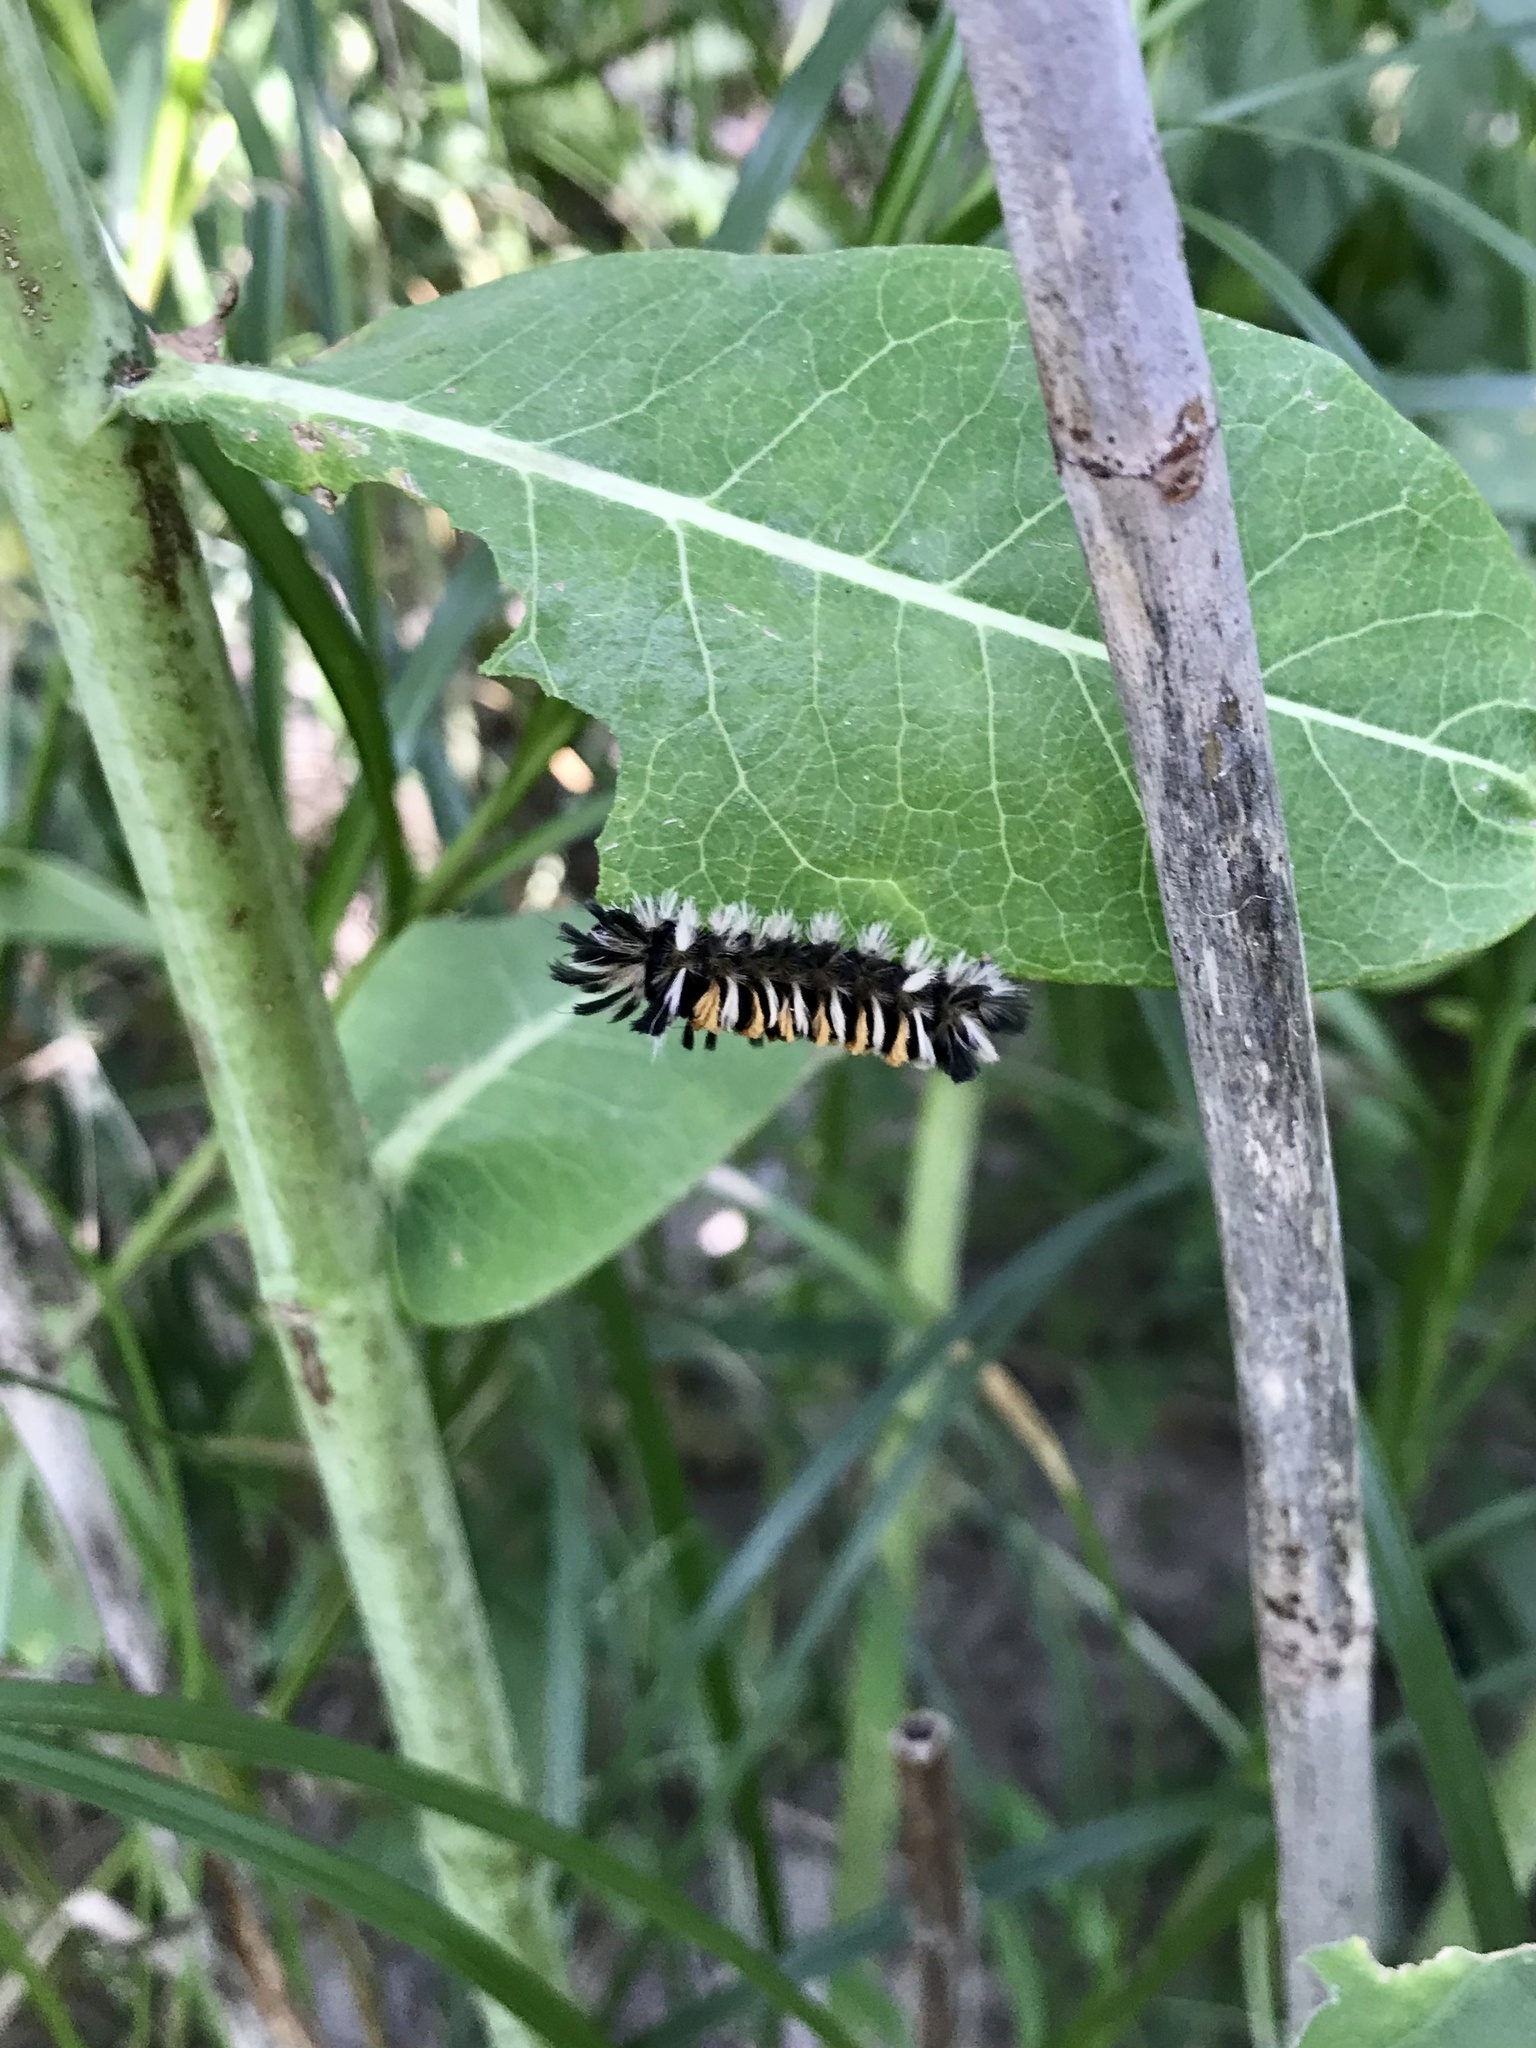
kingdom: Animalia
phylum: Arthropoda
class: Insecta
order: Lepidoptera
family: Erebidae
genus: Euchaetes
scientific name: Euchaetes egle
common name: Milkweed tussock moth
